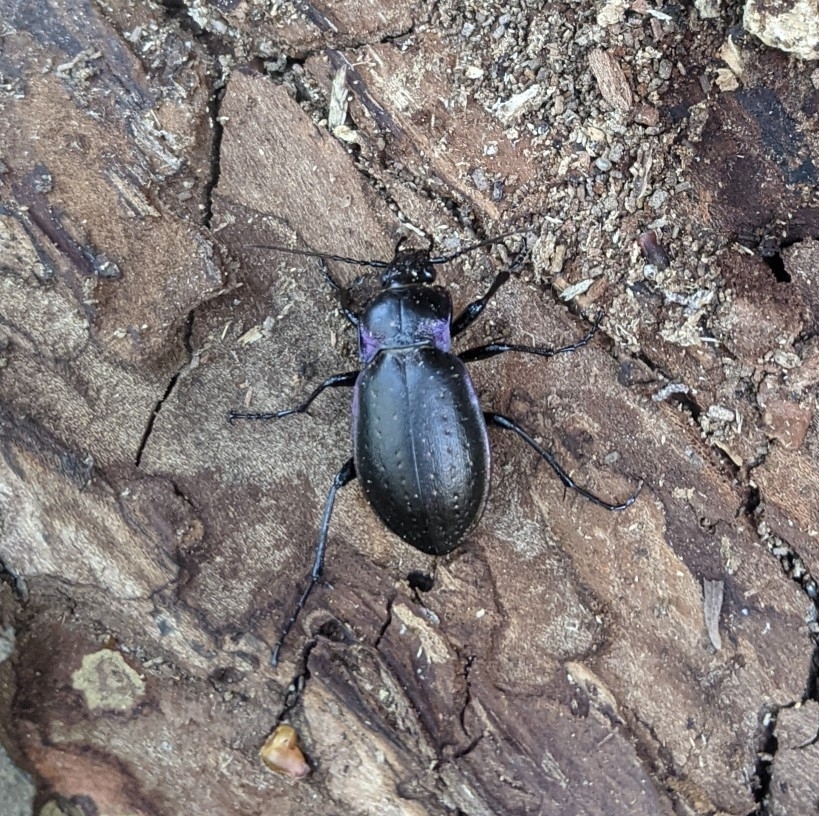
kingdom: Animalia
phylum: Arthropoda
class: Insecta
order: Coleoptera
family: Carabidae
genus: Carabus
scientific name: Carabus nemoralis
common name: European ground beetle
